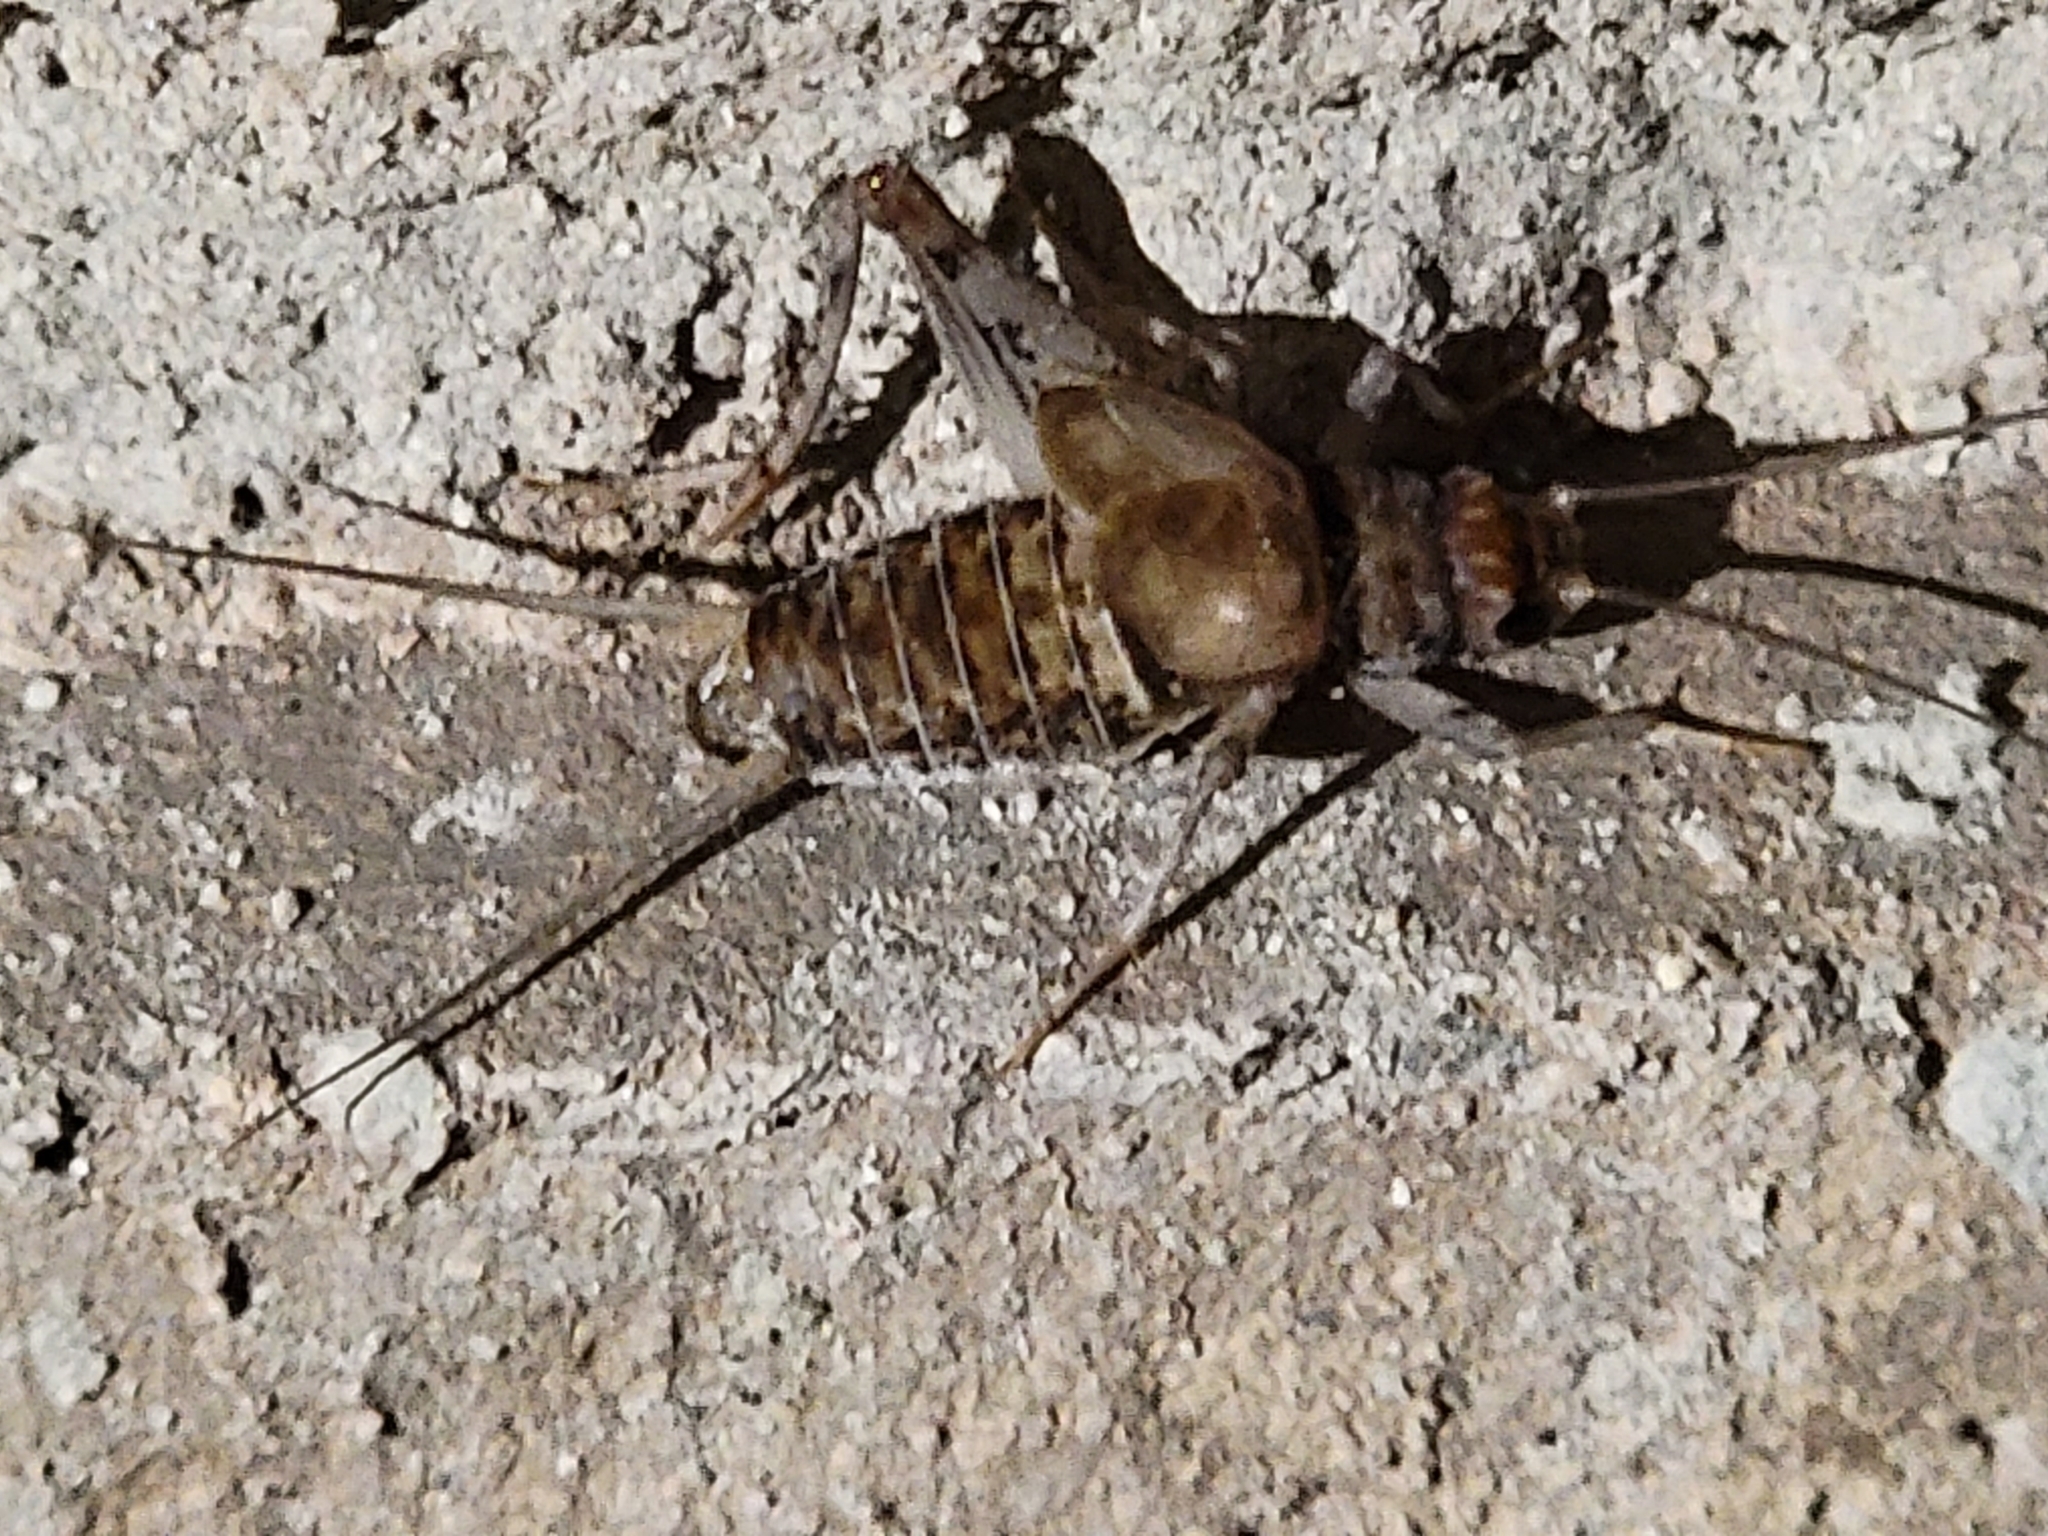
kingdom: Animalia
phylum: Arthropoda
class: Insecta
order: Orthoptera
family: Gryllidae
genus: Gryllodes
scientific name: Gryllodes sigillatus
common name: Tropical house cricket
